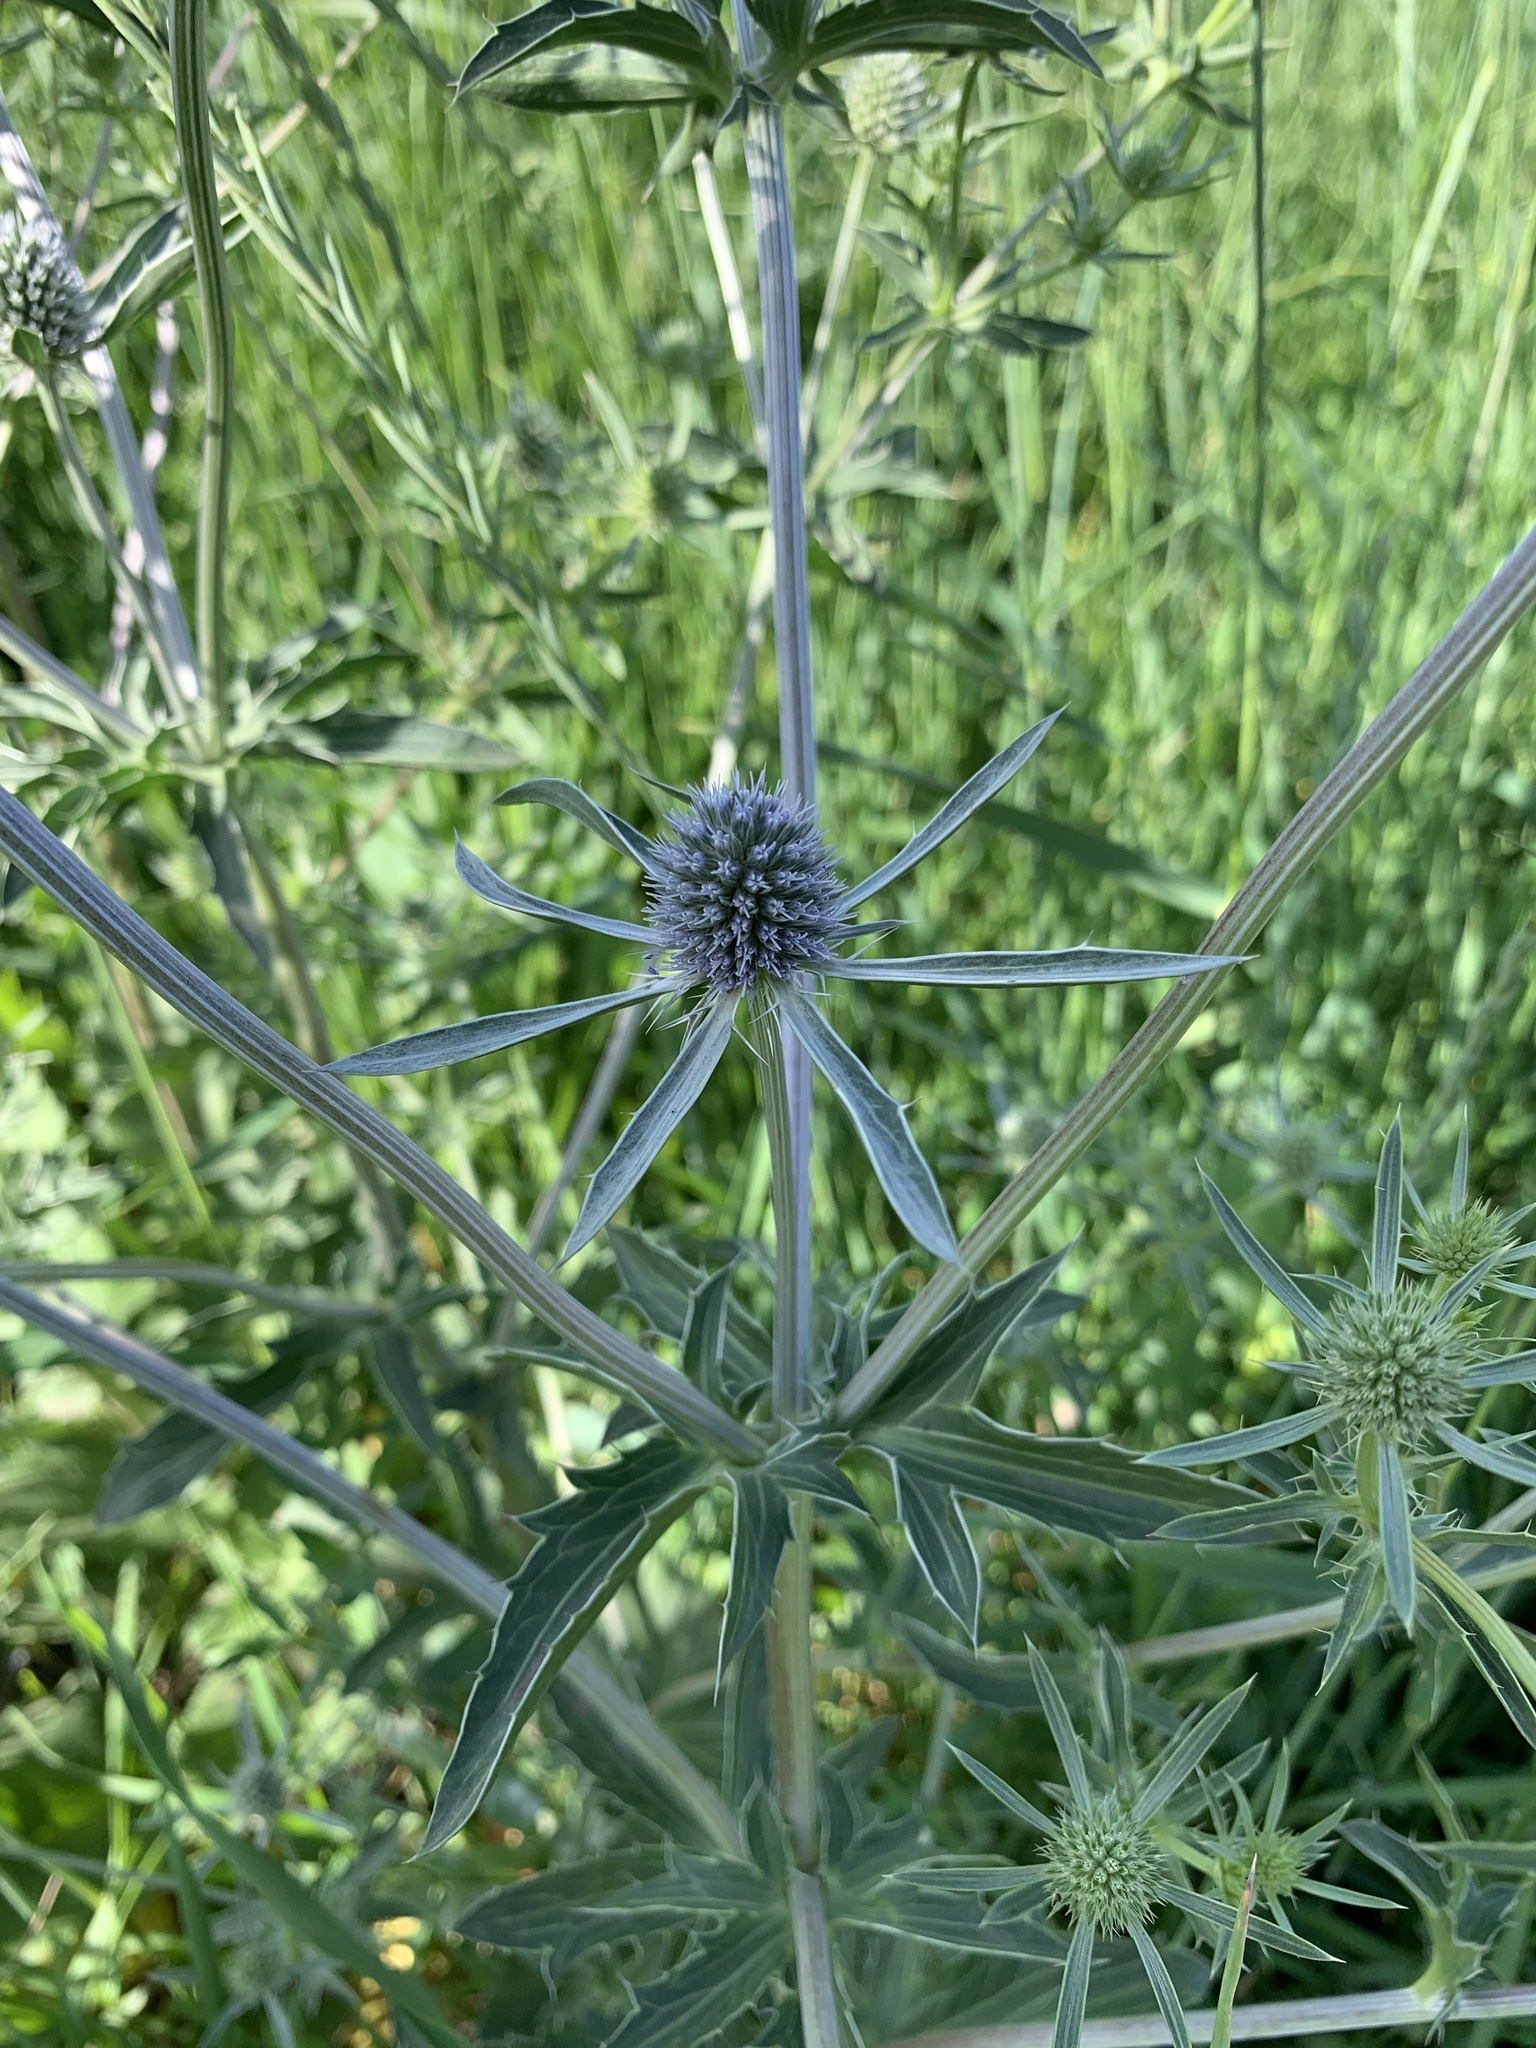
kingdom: Plantae
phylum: Tracheophyta
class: Magnoliopsida
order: Apiales
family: Apiaceae
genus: Eryngium
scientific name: Eryngium planum
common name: Blue eryngo
